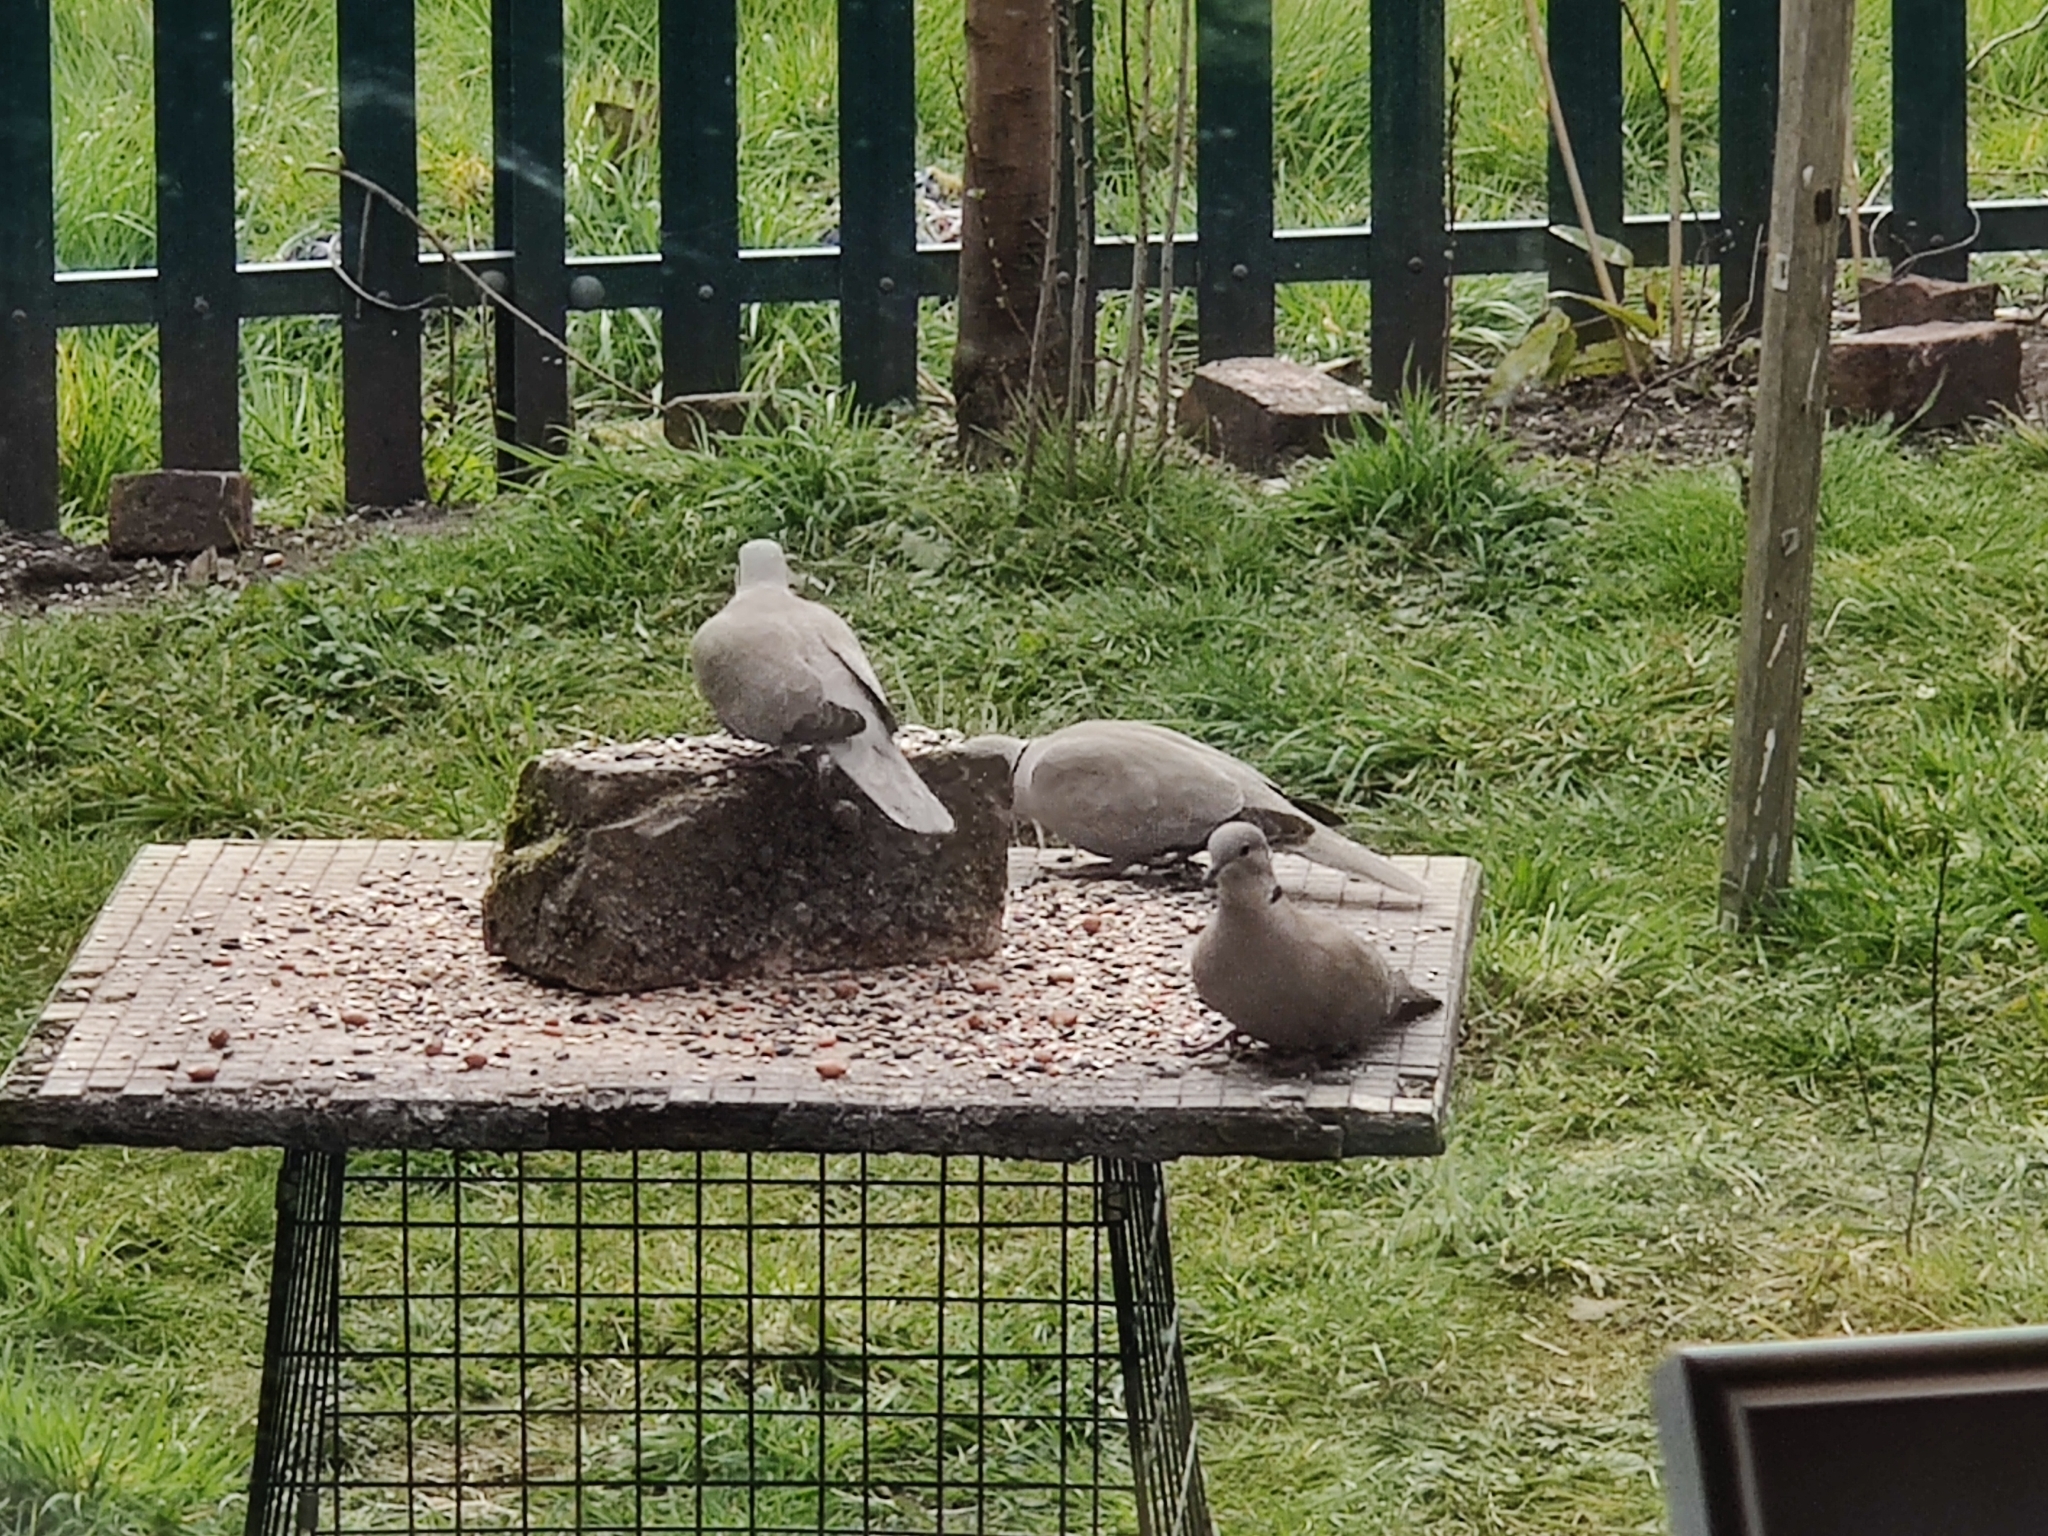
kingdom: Animalia
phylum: Chordata
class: Aves
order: Columbiformes
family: Columbidae
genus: Streptopelia
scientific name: Streptopelia decaocto
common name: Eurasian collared dove
